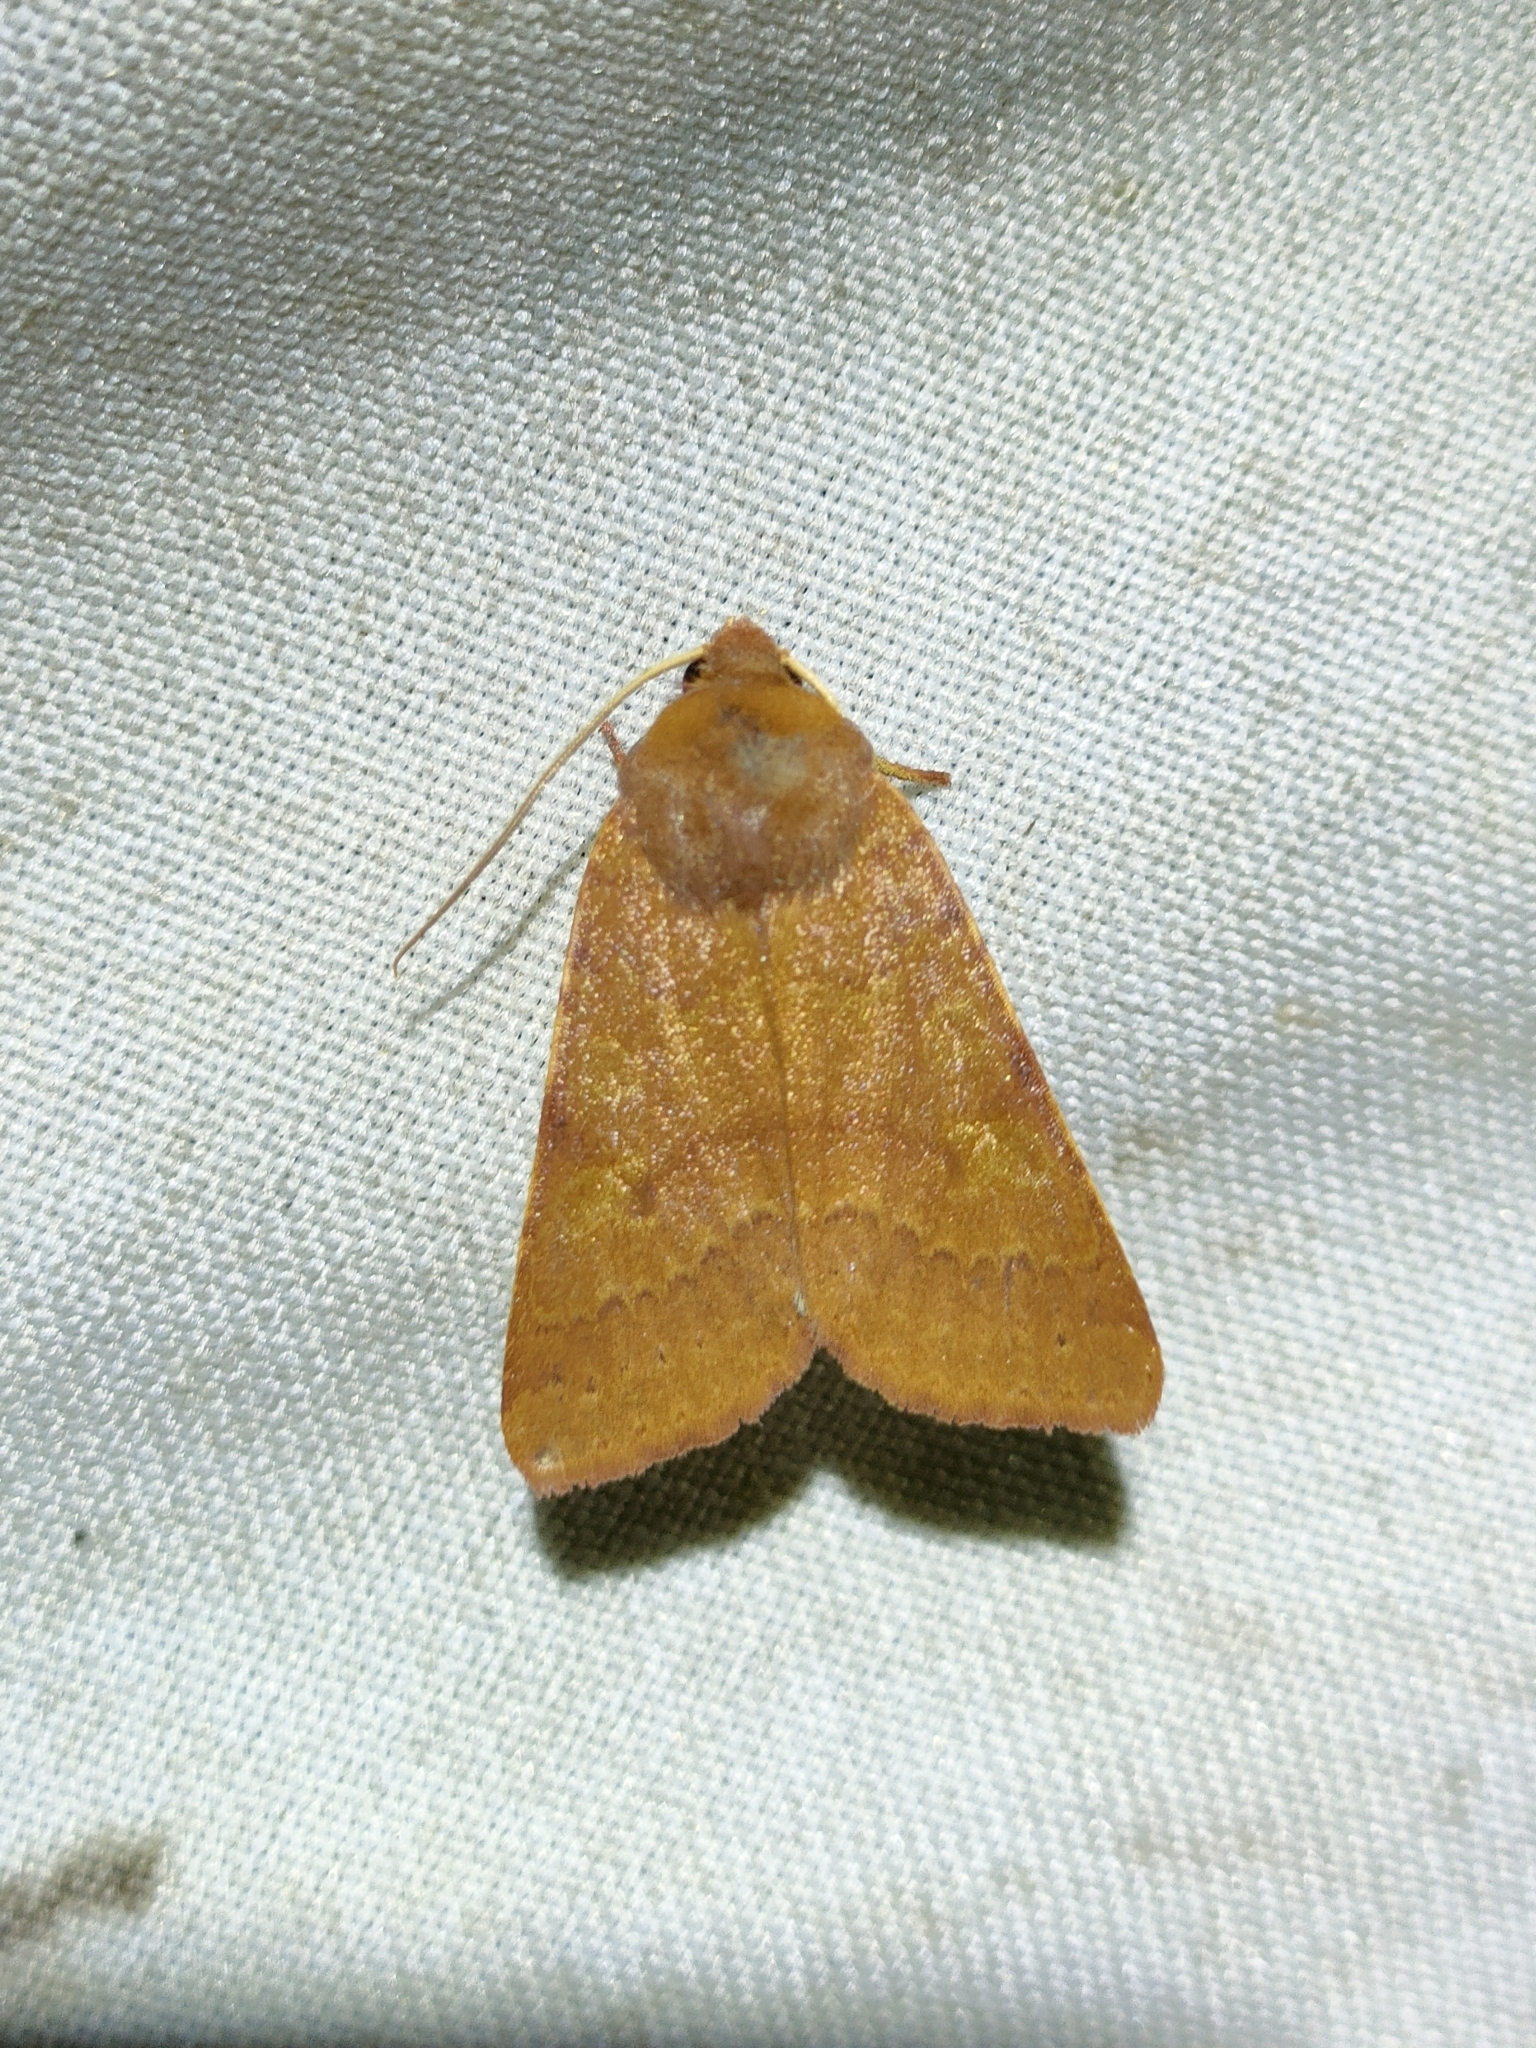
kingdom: Animalia
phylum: Arthropoda
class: Insecta
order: Lepidoptera
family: Noctuidae
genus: Agrochola
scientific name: Agrochola helvola
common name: Flounced chestnut
